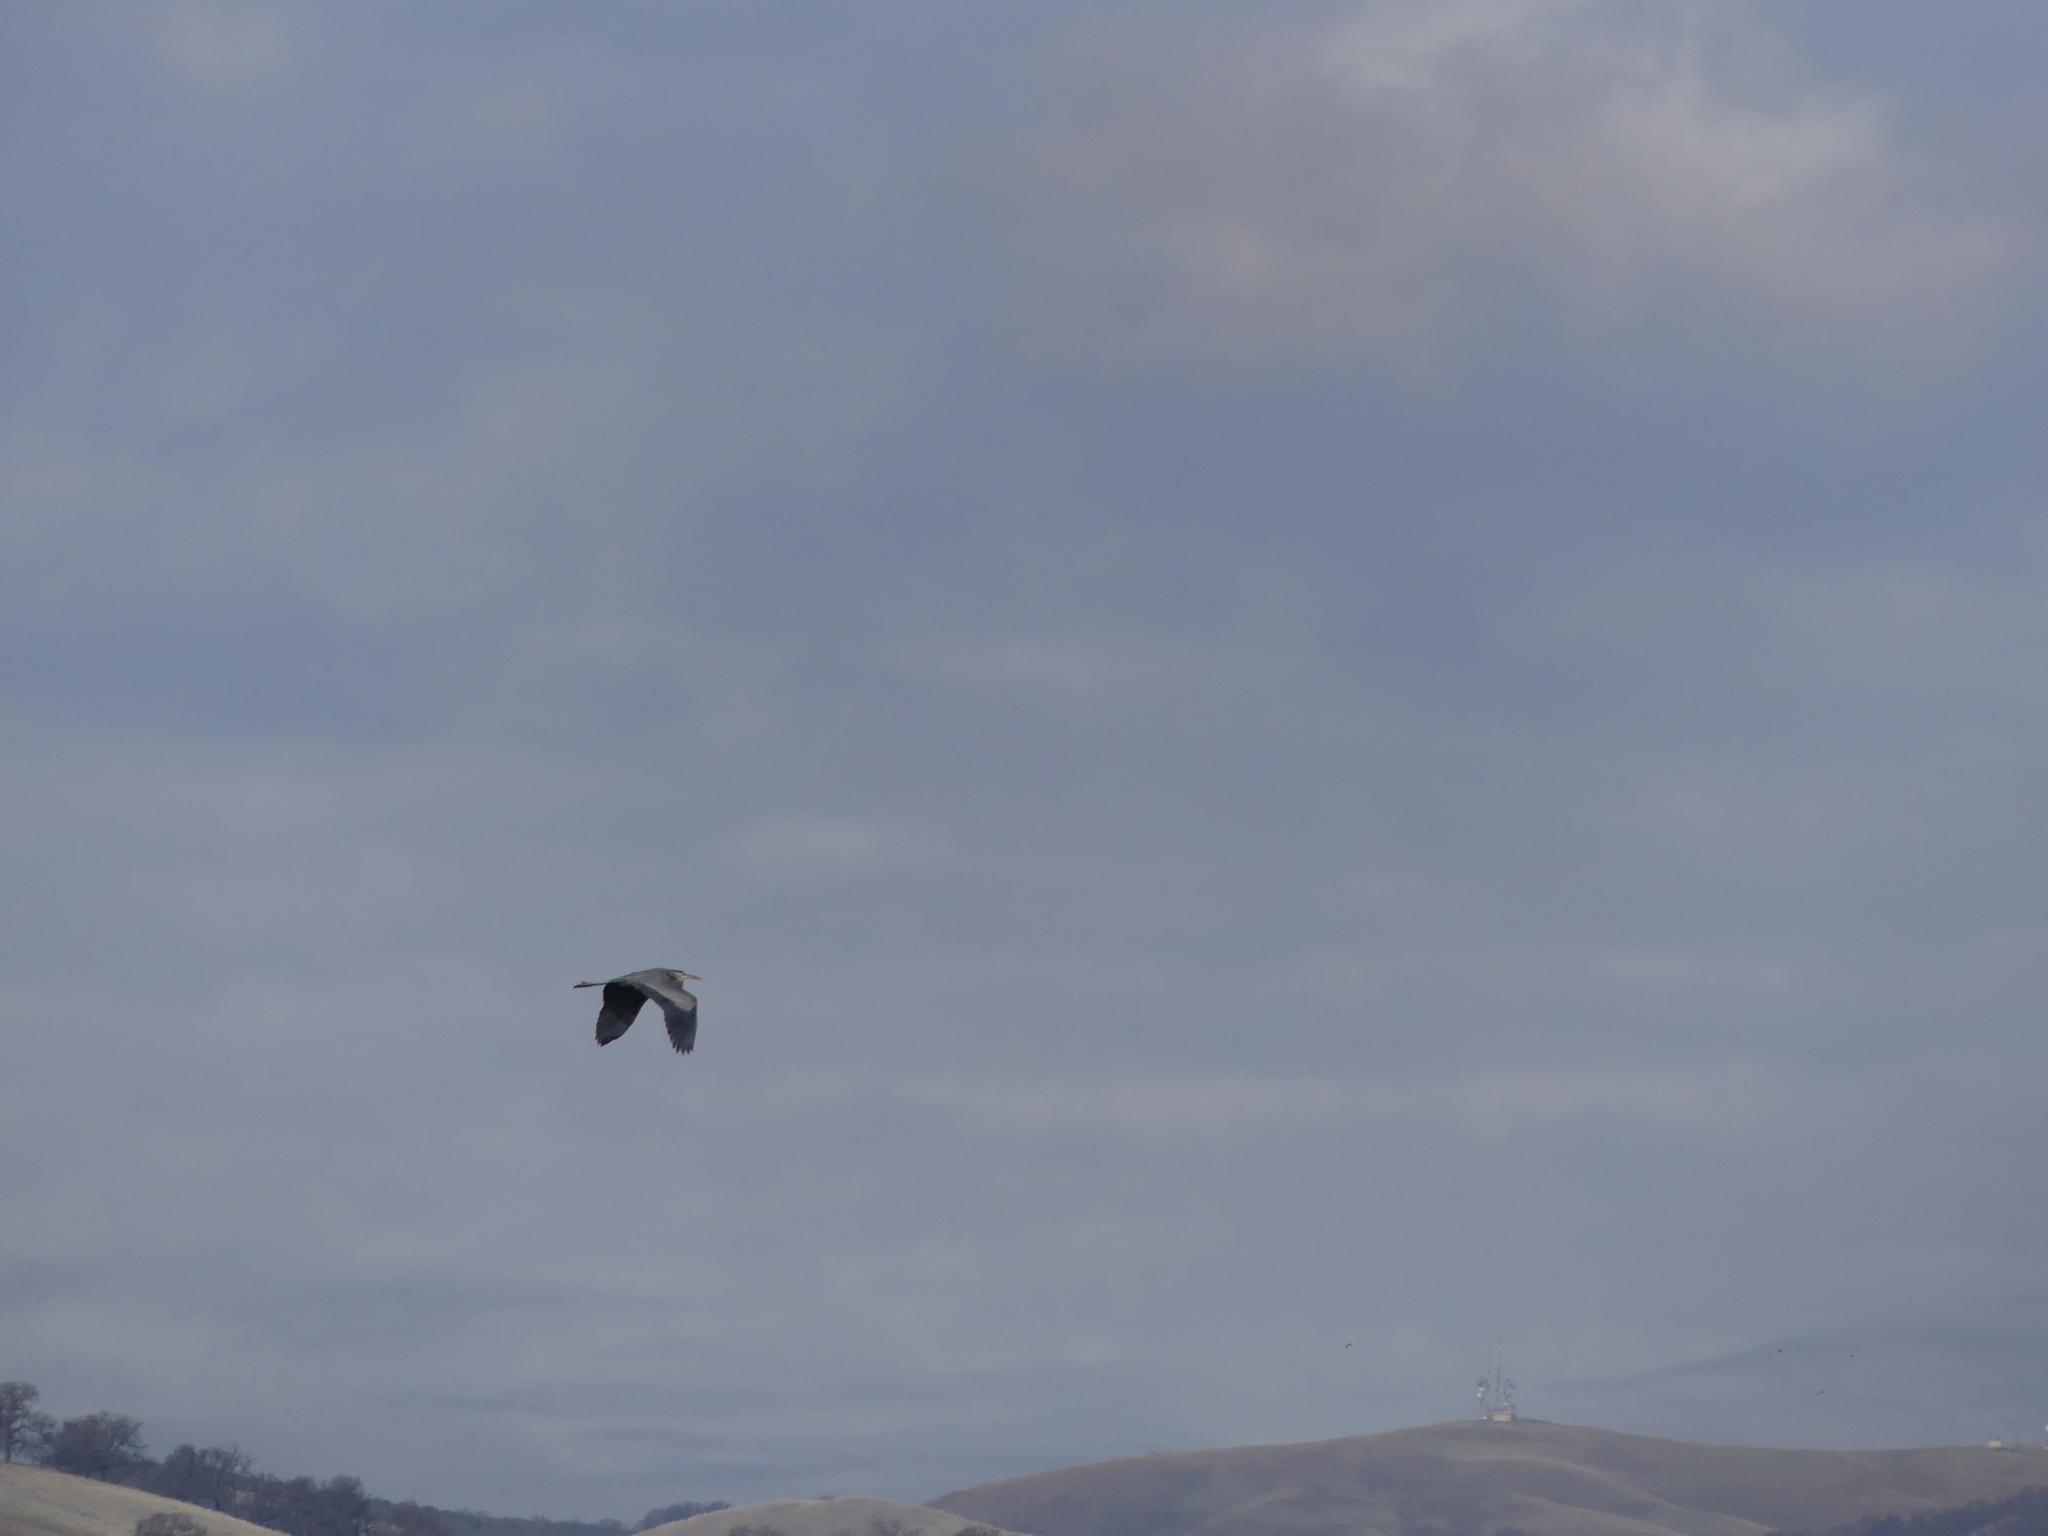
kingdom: Animalia
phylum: Chordata
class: Aves
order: Pelecaniformes
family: Ardeidae
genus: Ardea
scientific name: Ardea herodias
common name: Great blue heron
